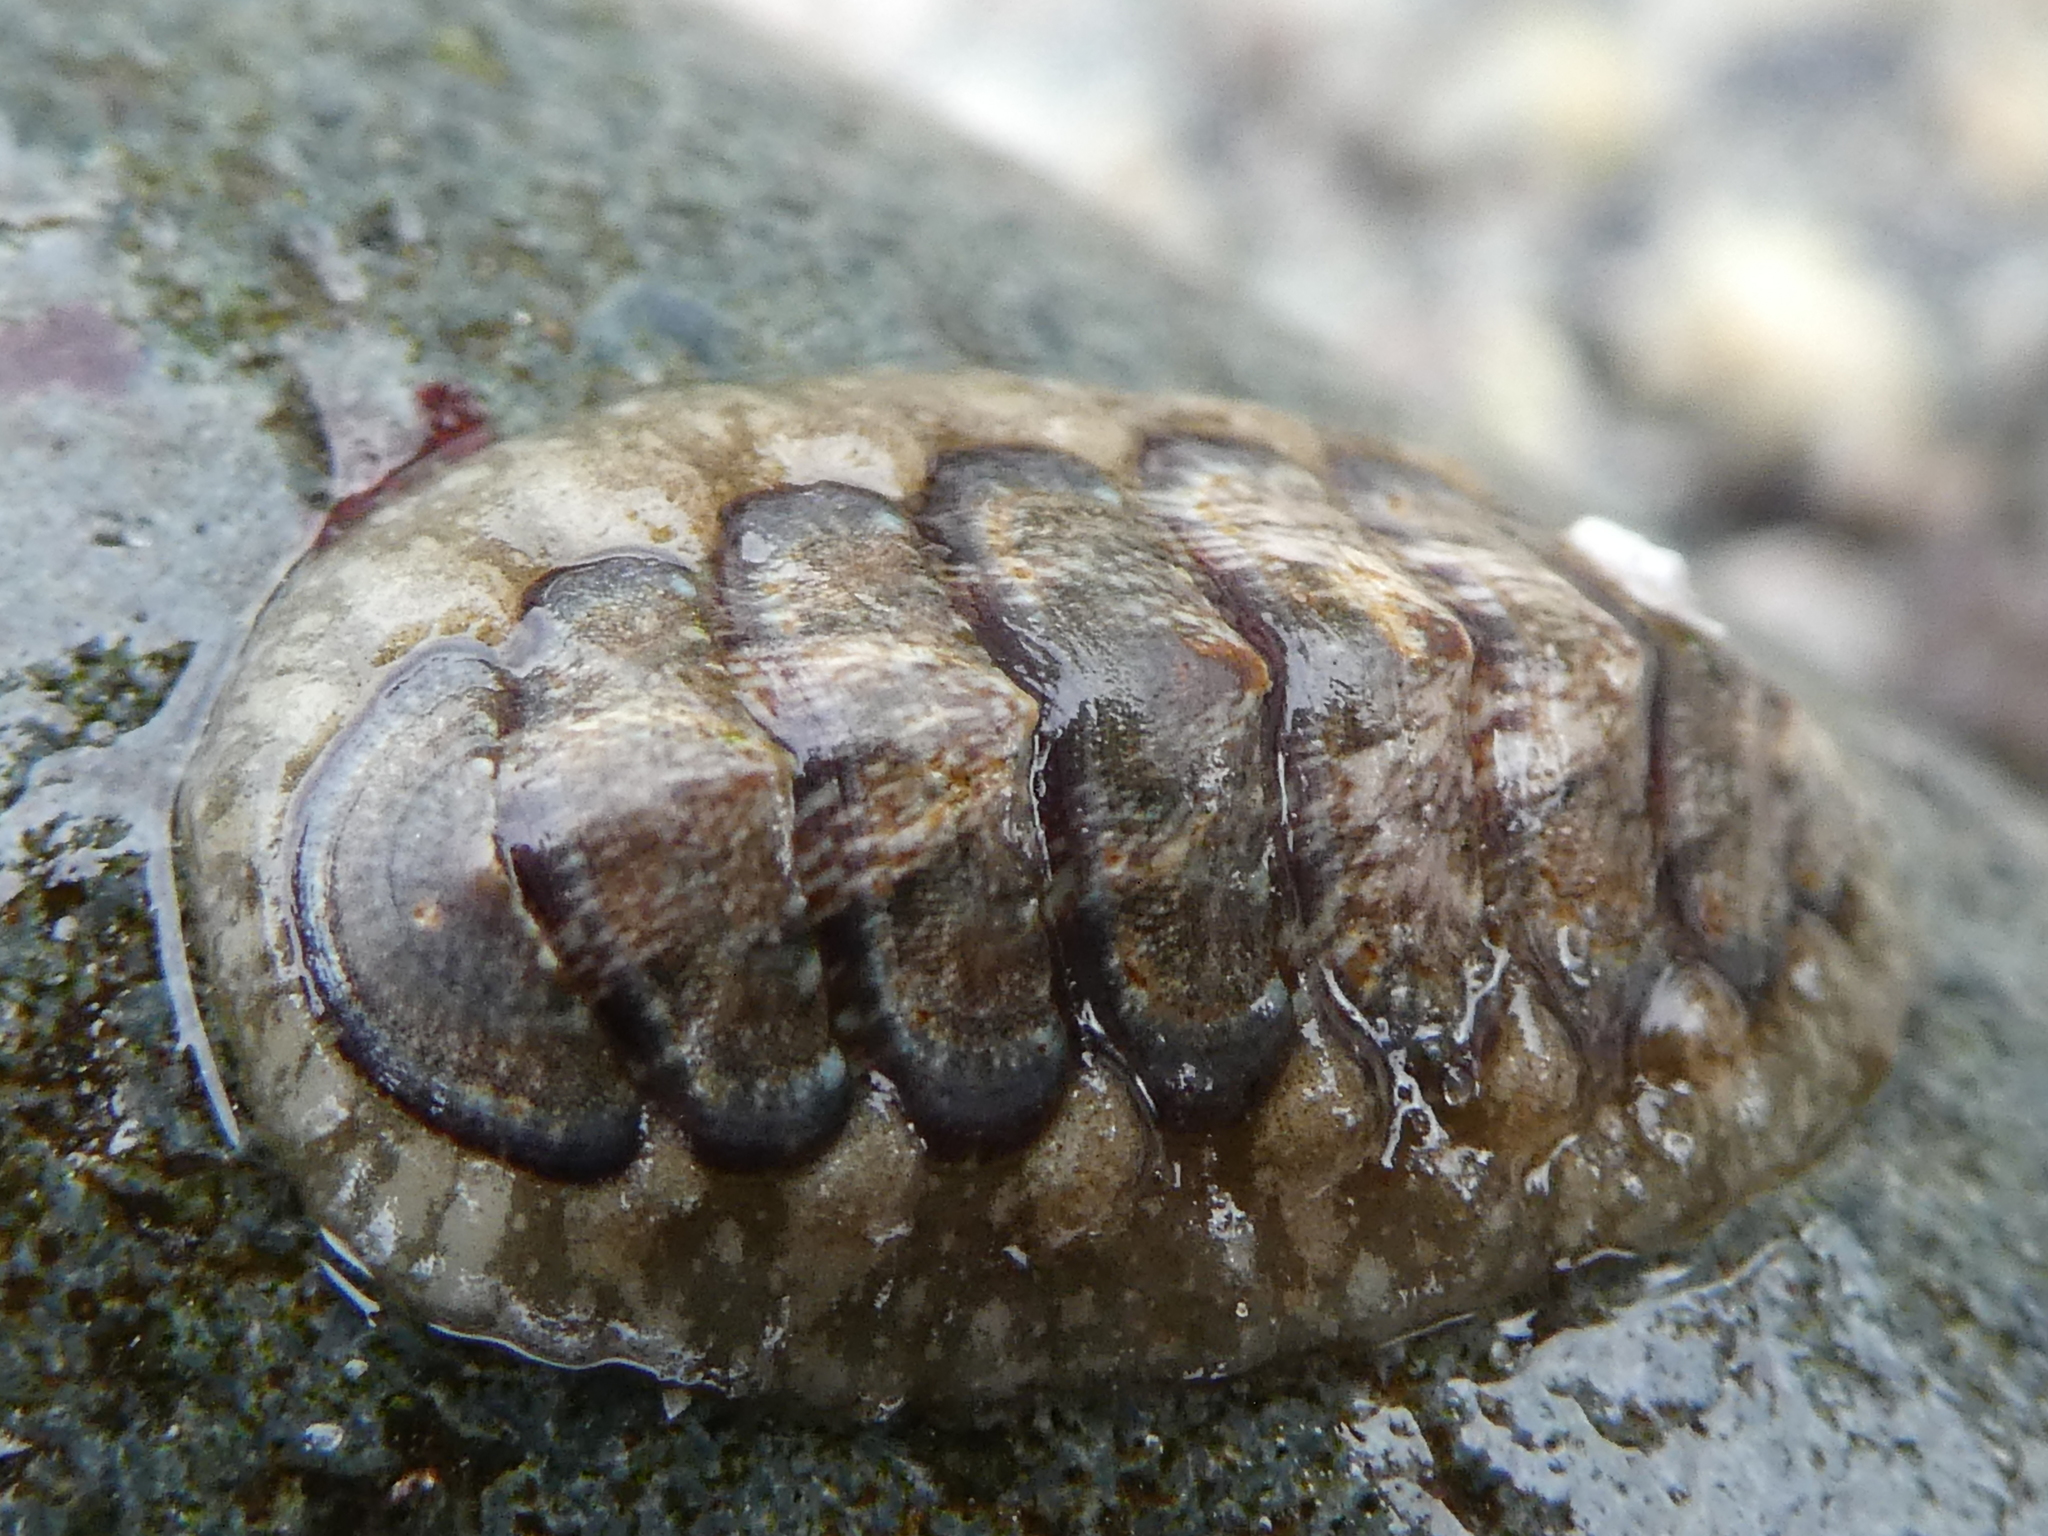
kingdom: Animalia
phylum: Mollusca
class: Polyplacophora
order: Chitonida
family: Tonicellidae
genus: Cyanoplax
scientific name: Cyanoplax dentiens
